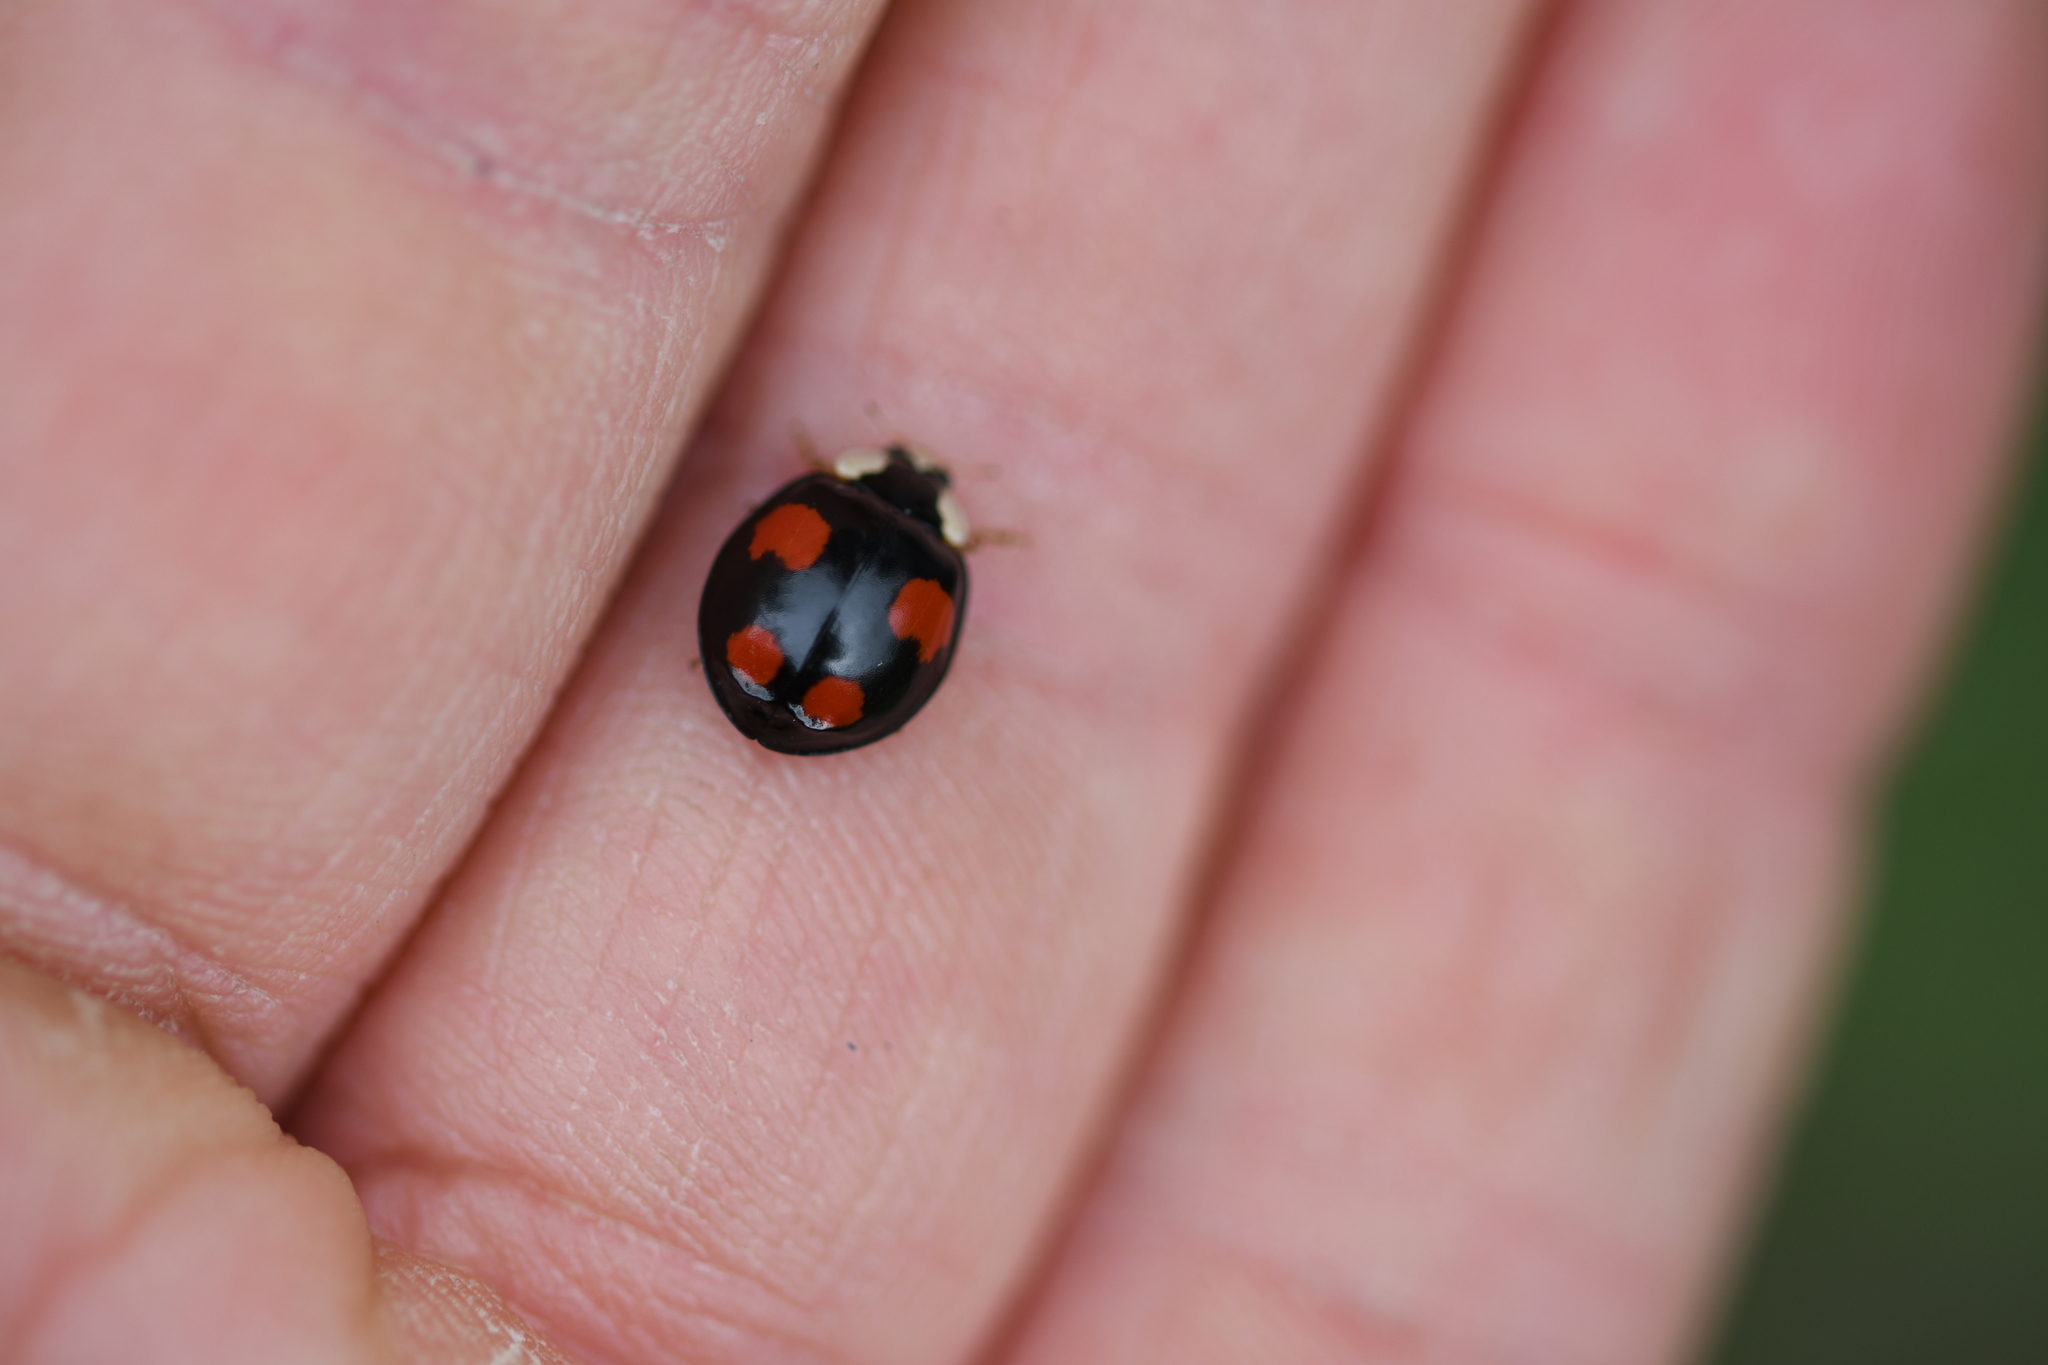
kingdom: Animalia
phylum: Arthropoda
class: Insecta
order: Coleoptera
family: Coccinellidae
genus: Harmonia
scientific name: Harmonia axyridis
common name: Harlequin ladybird
